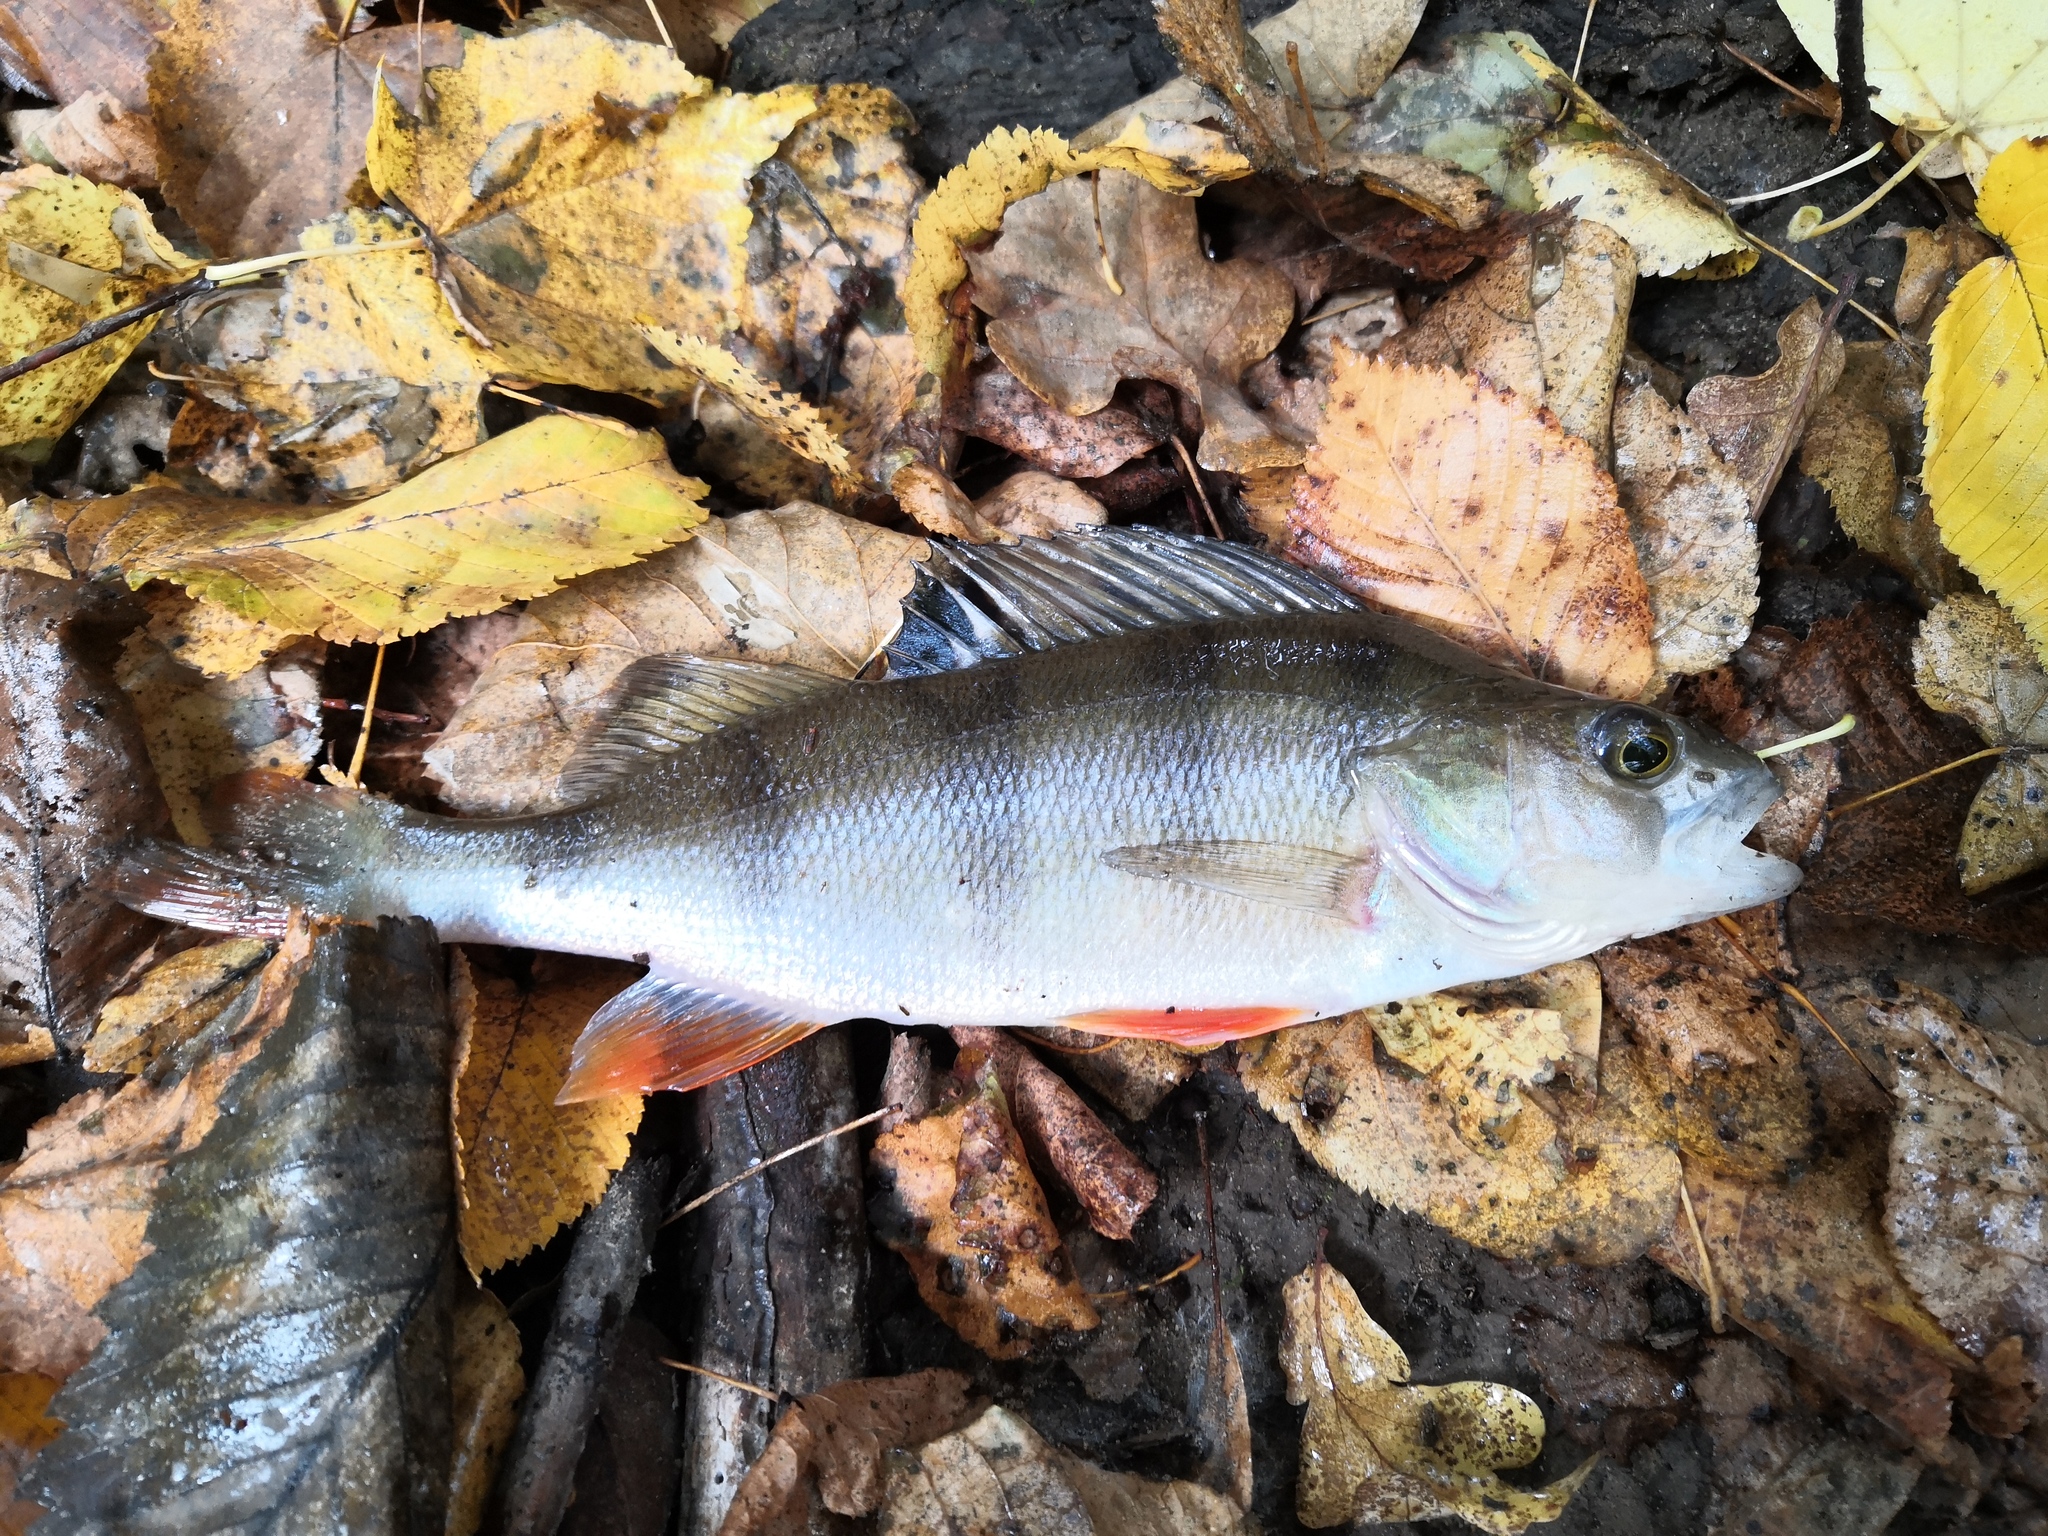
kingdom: Animalia
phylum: Chordata
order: Perciformes
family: Percidae
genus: Perca
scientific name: Perca fluviatilis
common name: Perch
